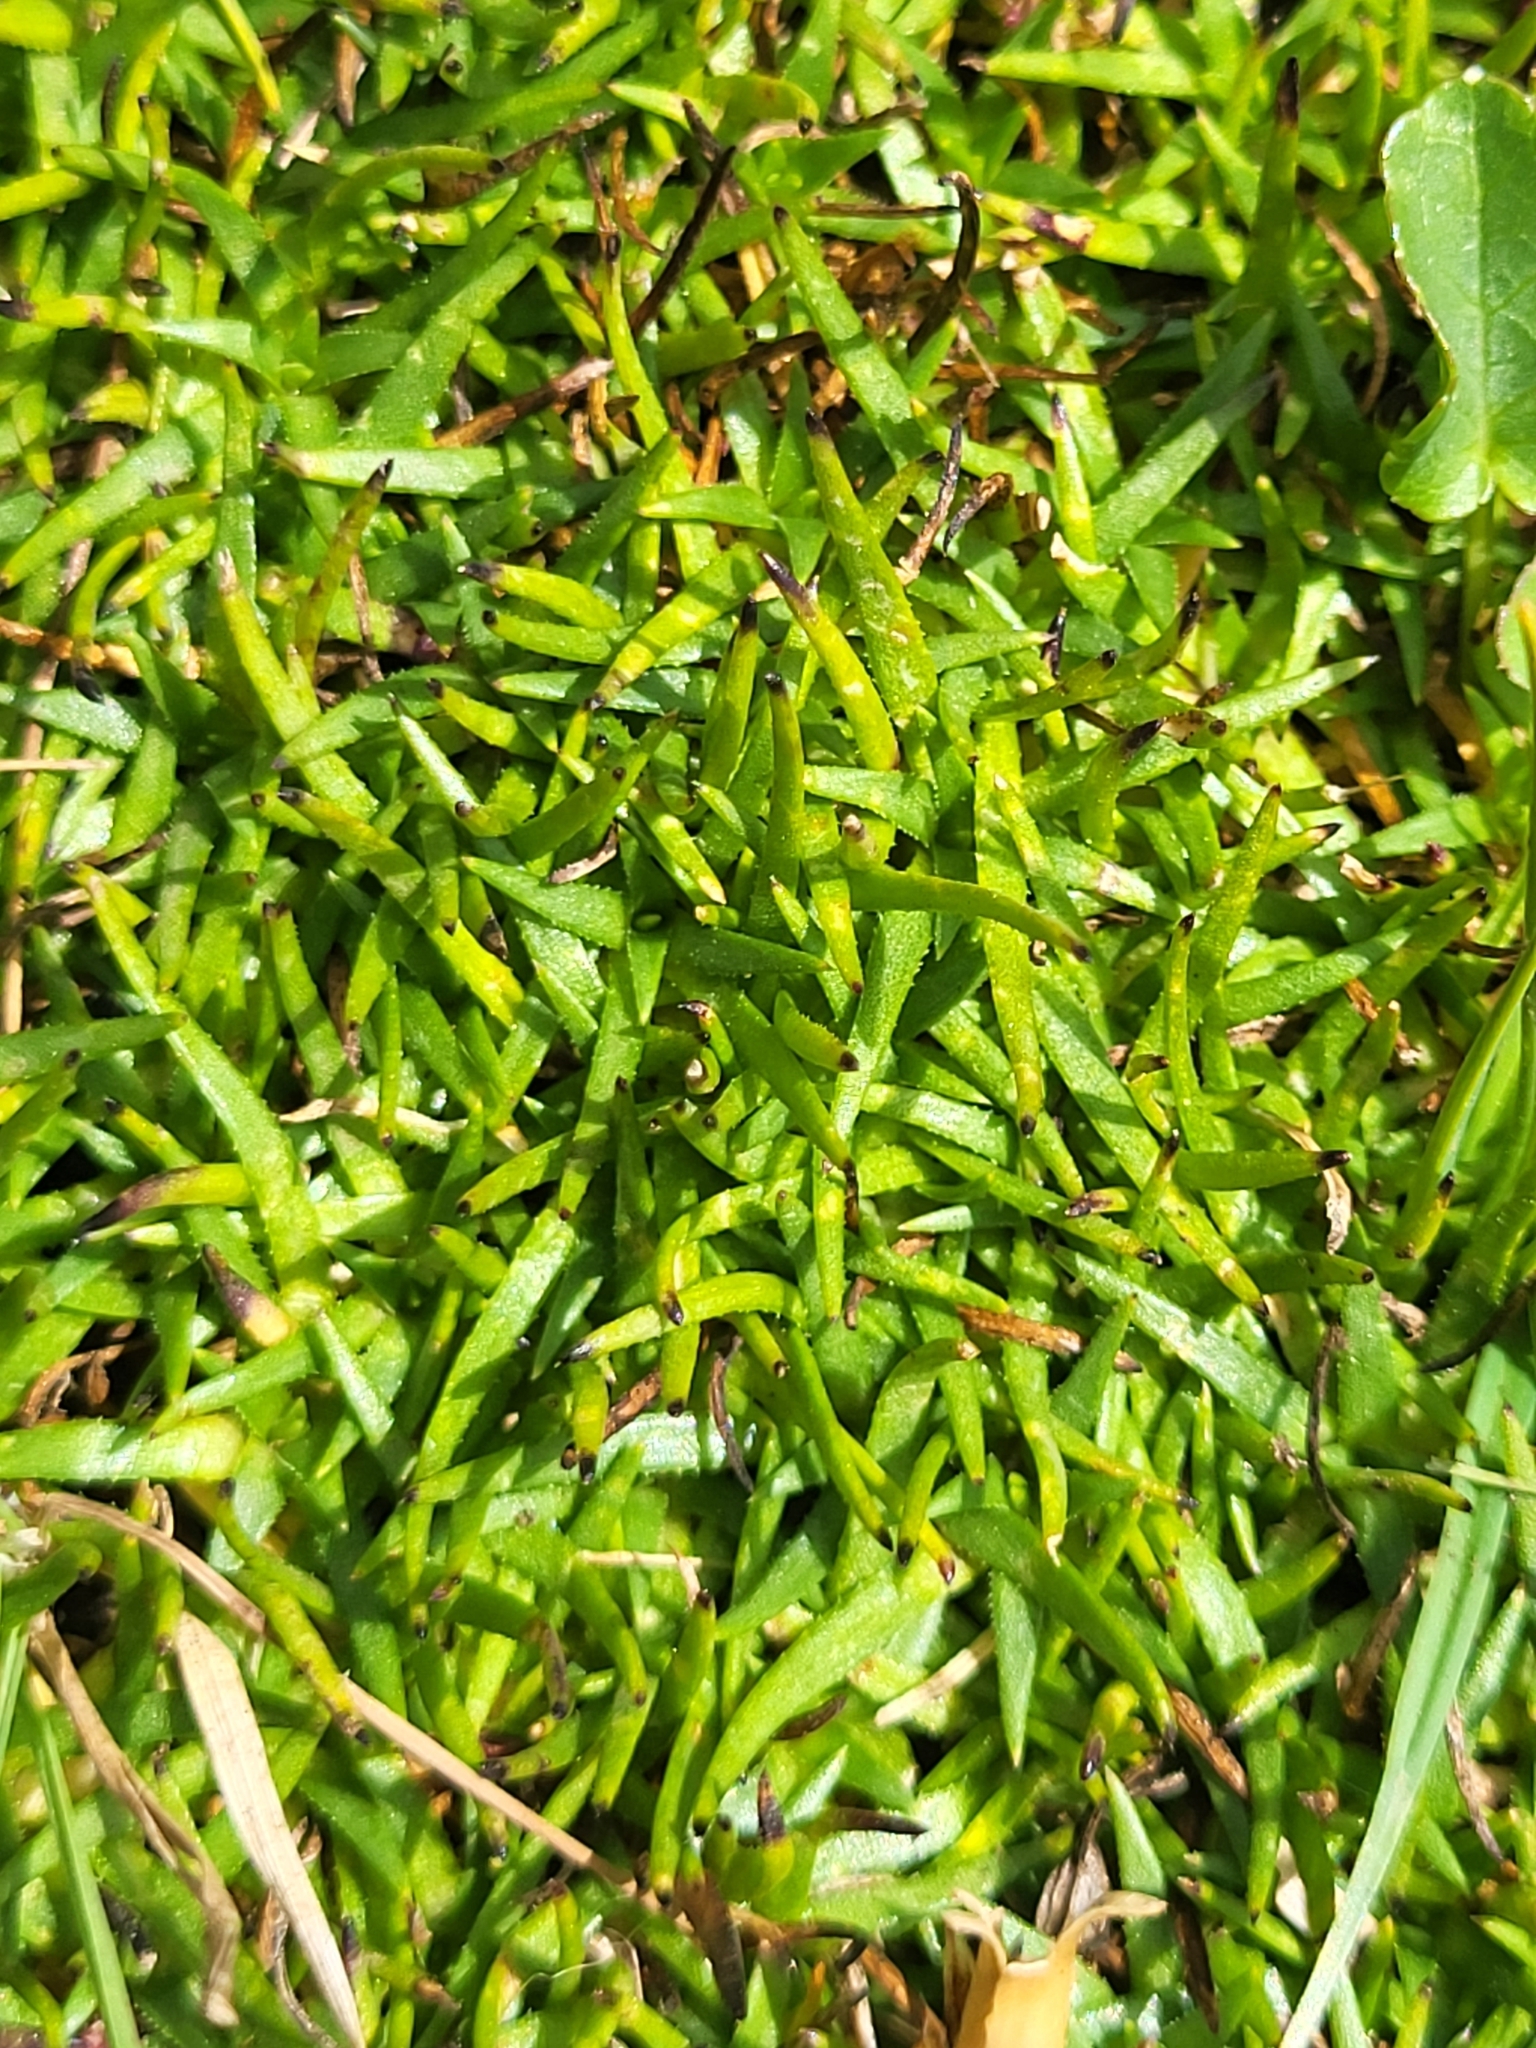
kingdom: Plantae
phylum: Tracheophyta
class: Magnoliopsida
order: Caryophyllales
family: Caryophyllaceae
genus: Silene
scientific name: Silene acaulis
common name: Moss campion
